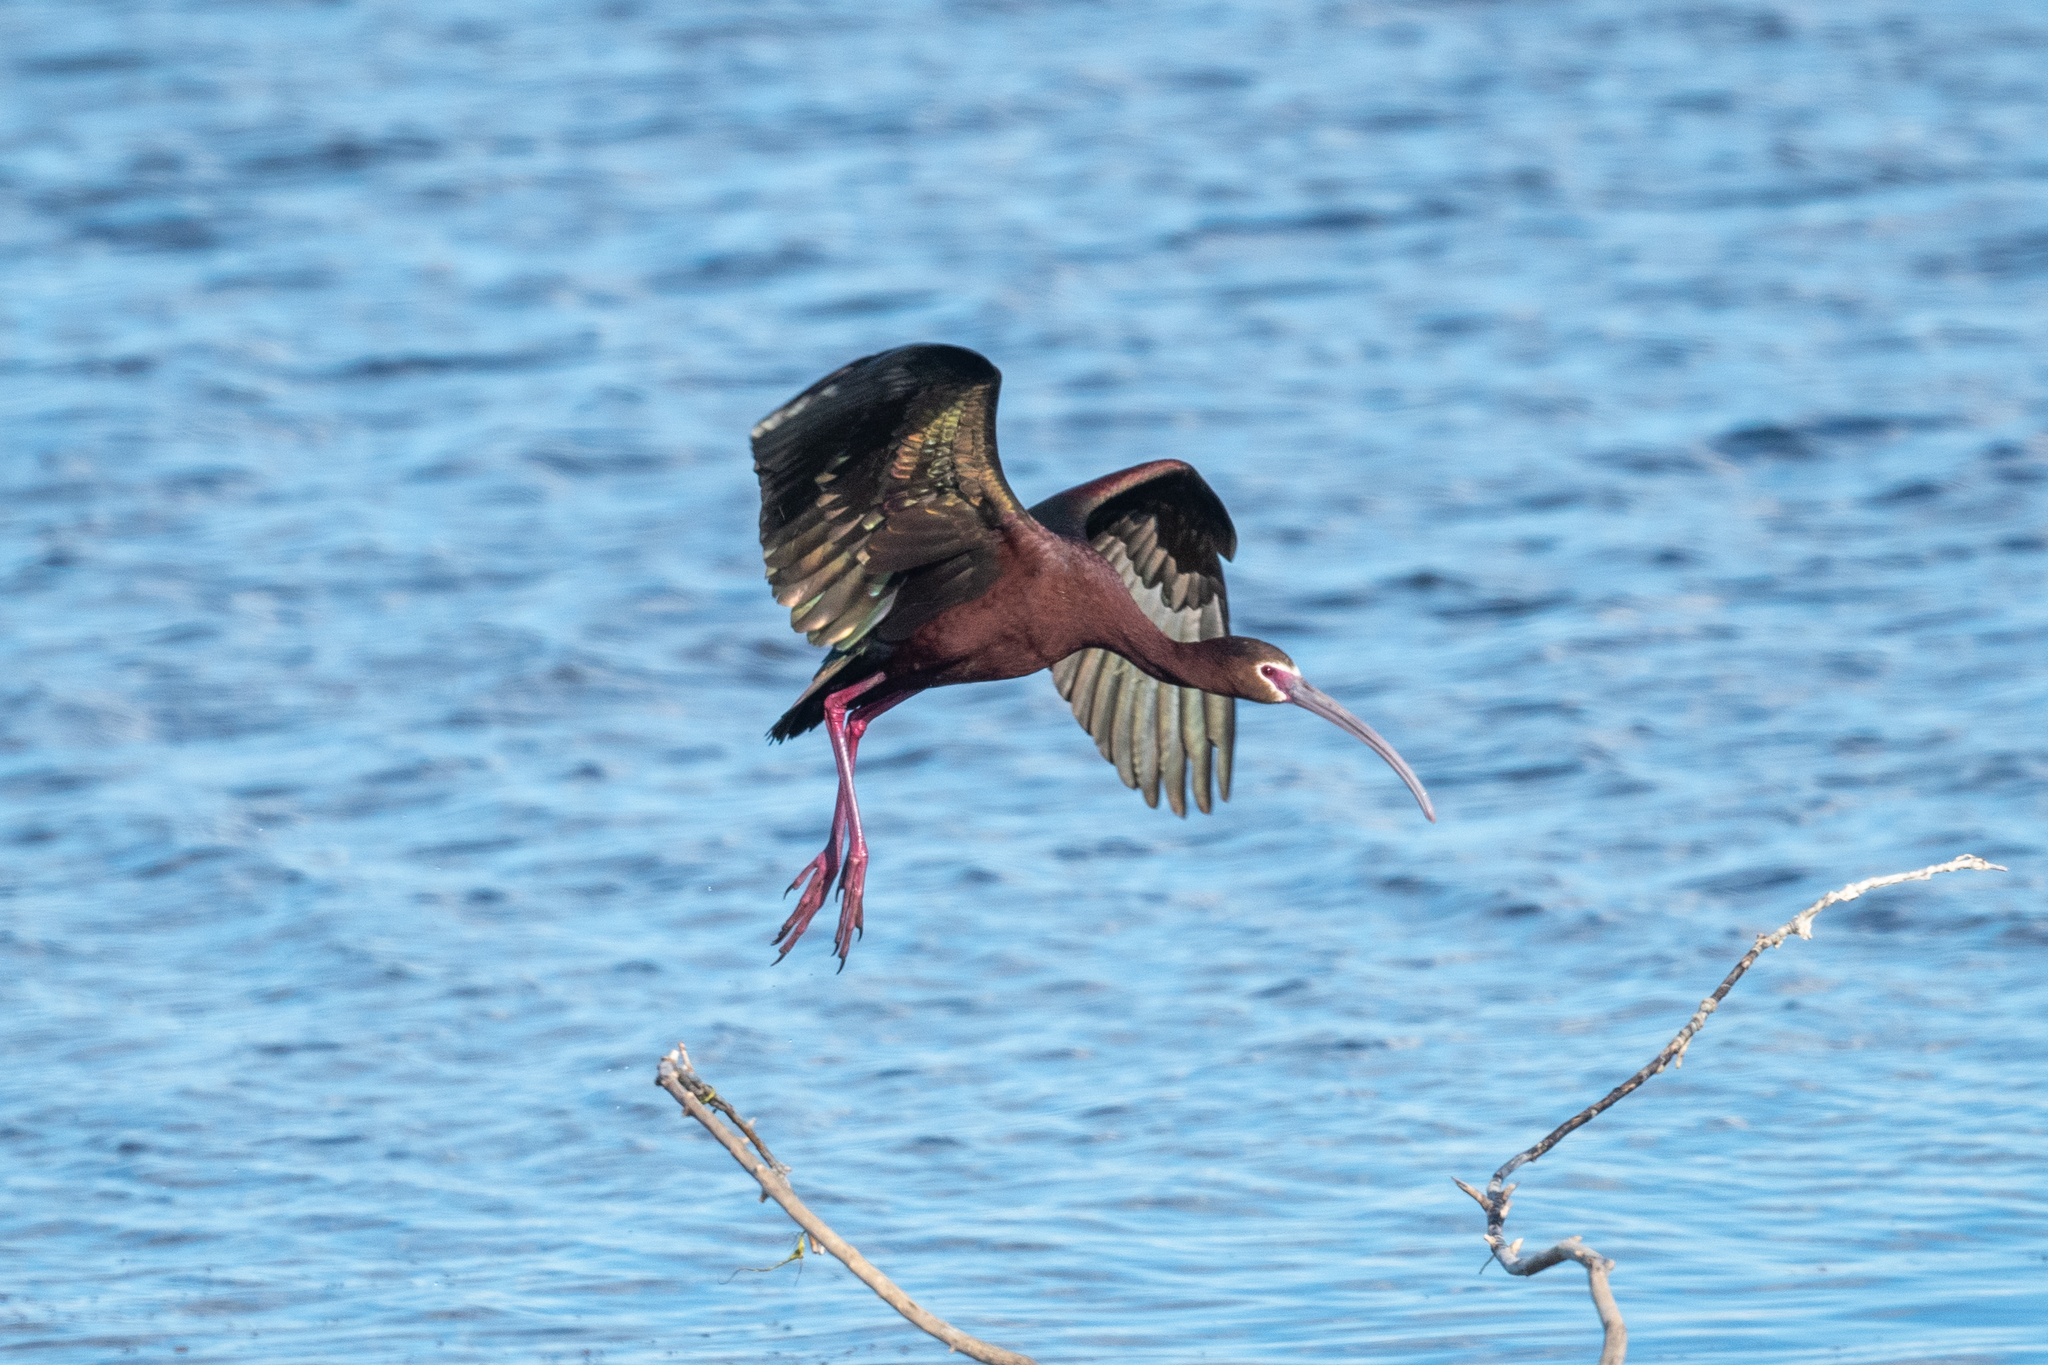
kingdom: Animalia
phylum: Chordata
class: Aves
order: Pelecaniformes
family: Threskiornithidae
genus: Plegadis
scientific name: Plegadis chihi
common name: White-faced ibis
